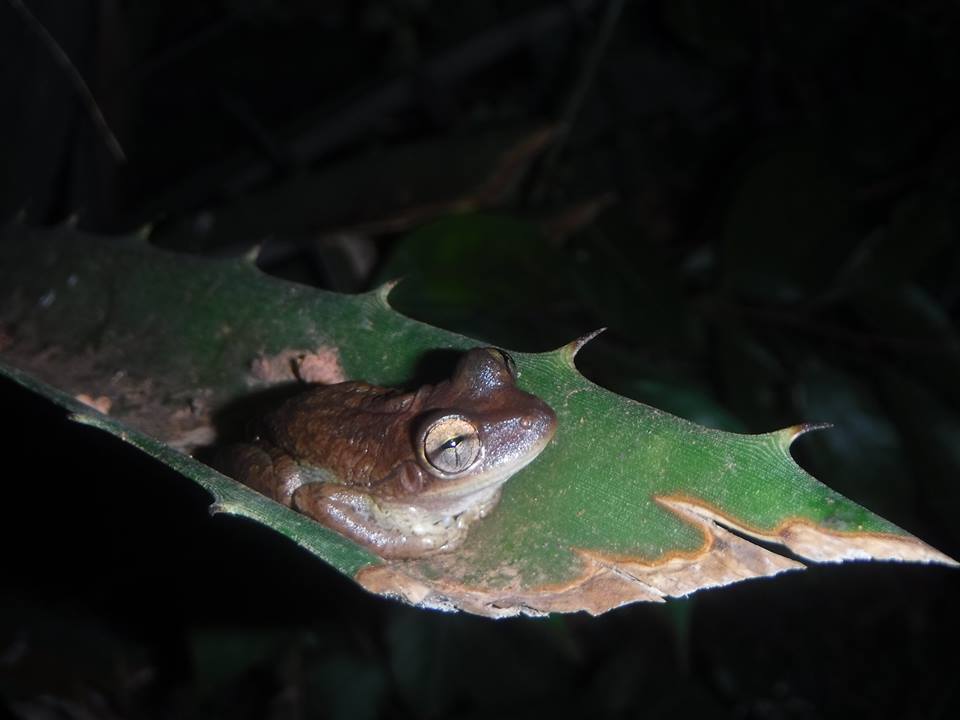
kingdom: Animalia
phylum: Chordata
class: Amphibia
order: Anura
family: Hylidae
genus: Osteopilus
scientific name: Osteopilus septentrionalis
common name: Cuban treefrog
